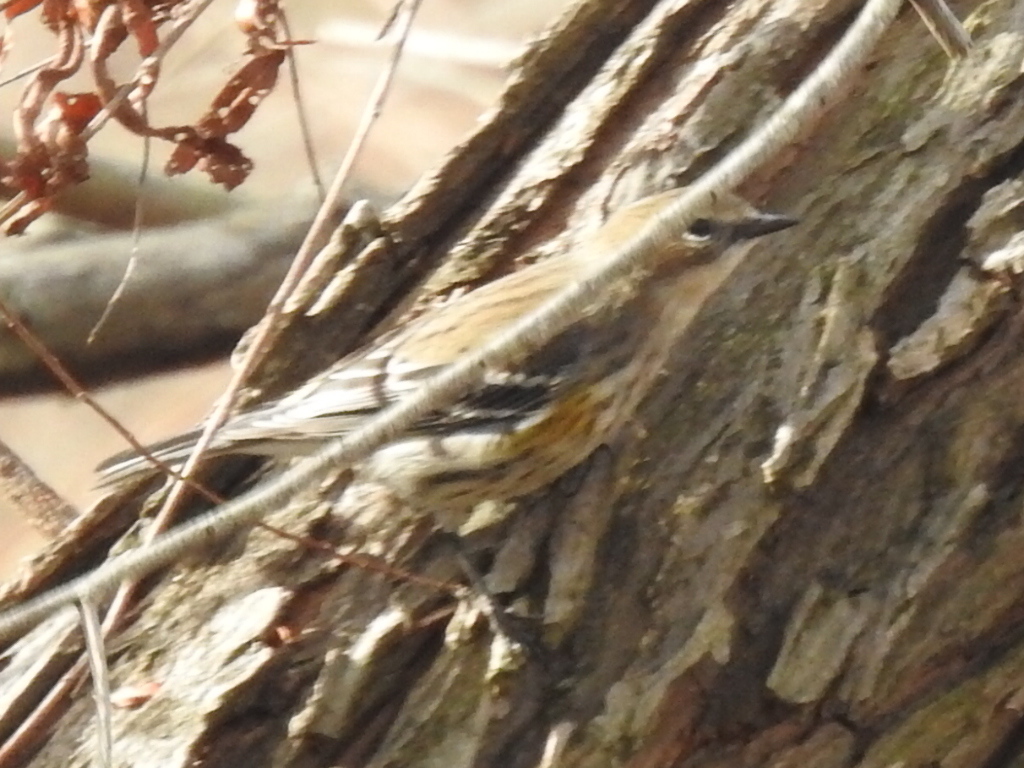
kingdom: Animalia
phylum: Chordata
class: Aves
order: Passeriformes
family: Parulidae
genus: Setophaga
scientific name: Setophaga coronata
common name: Myrtle warbler
